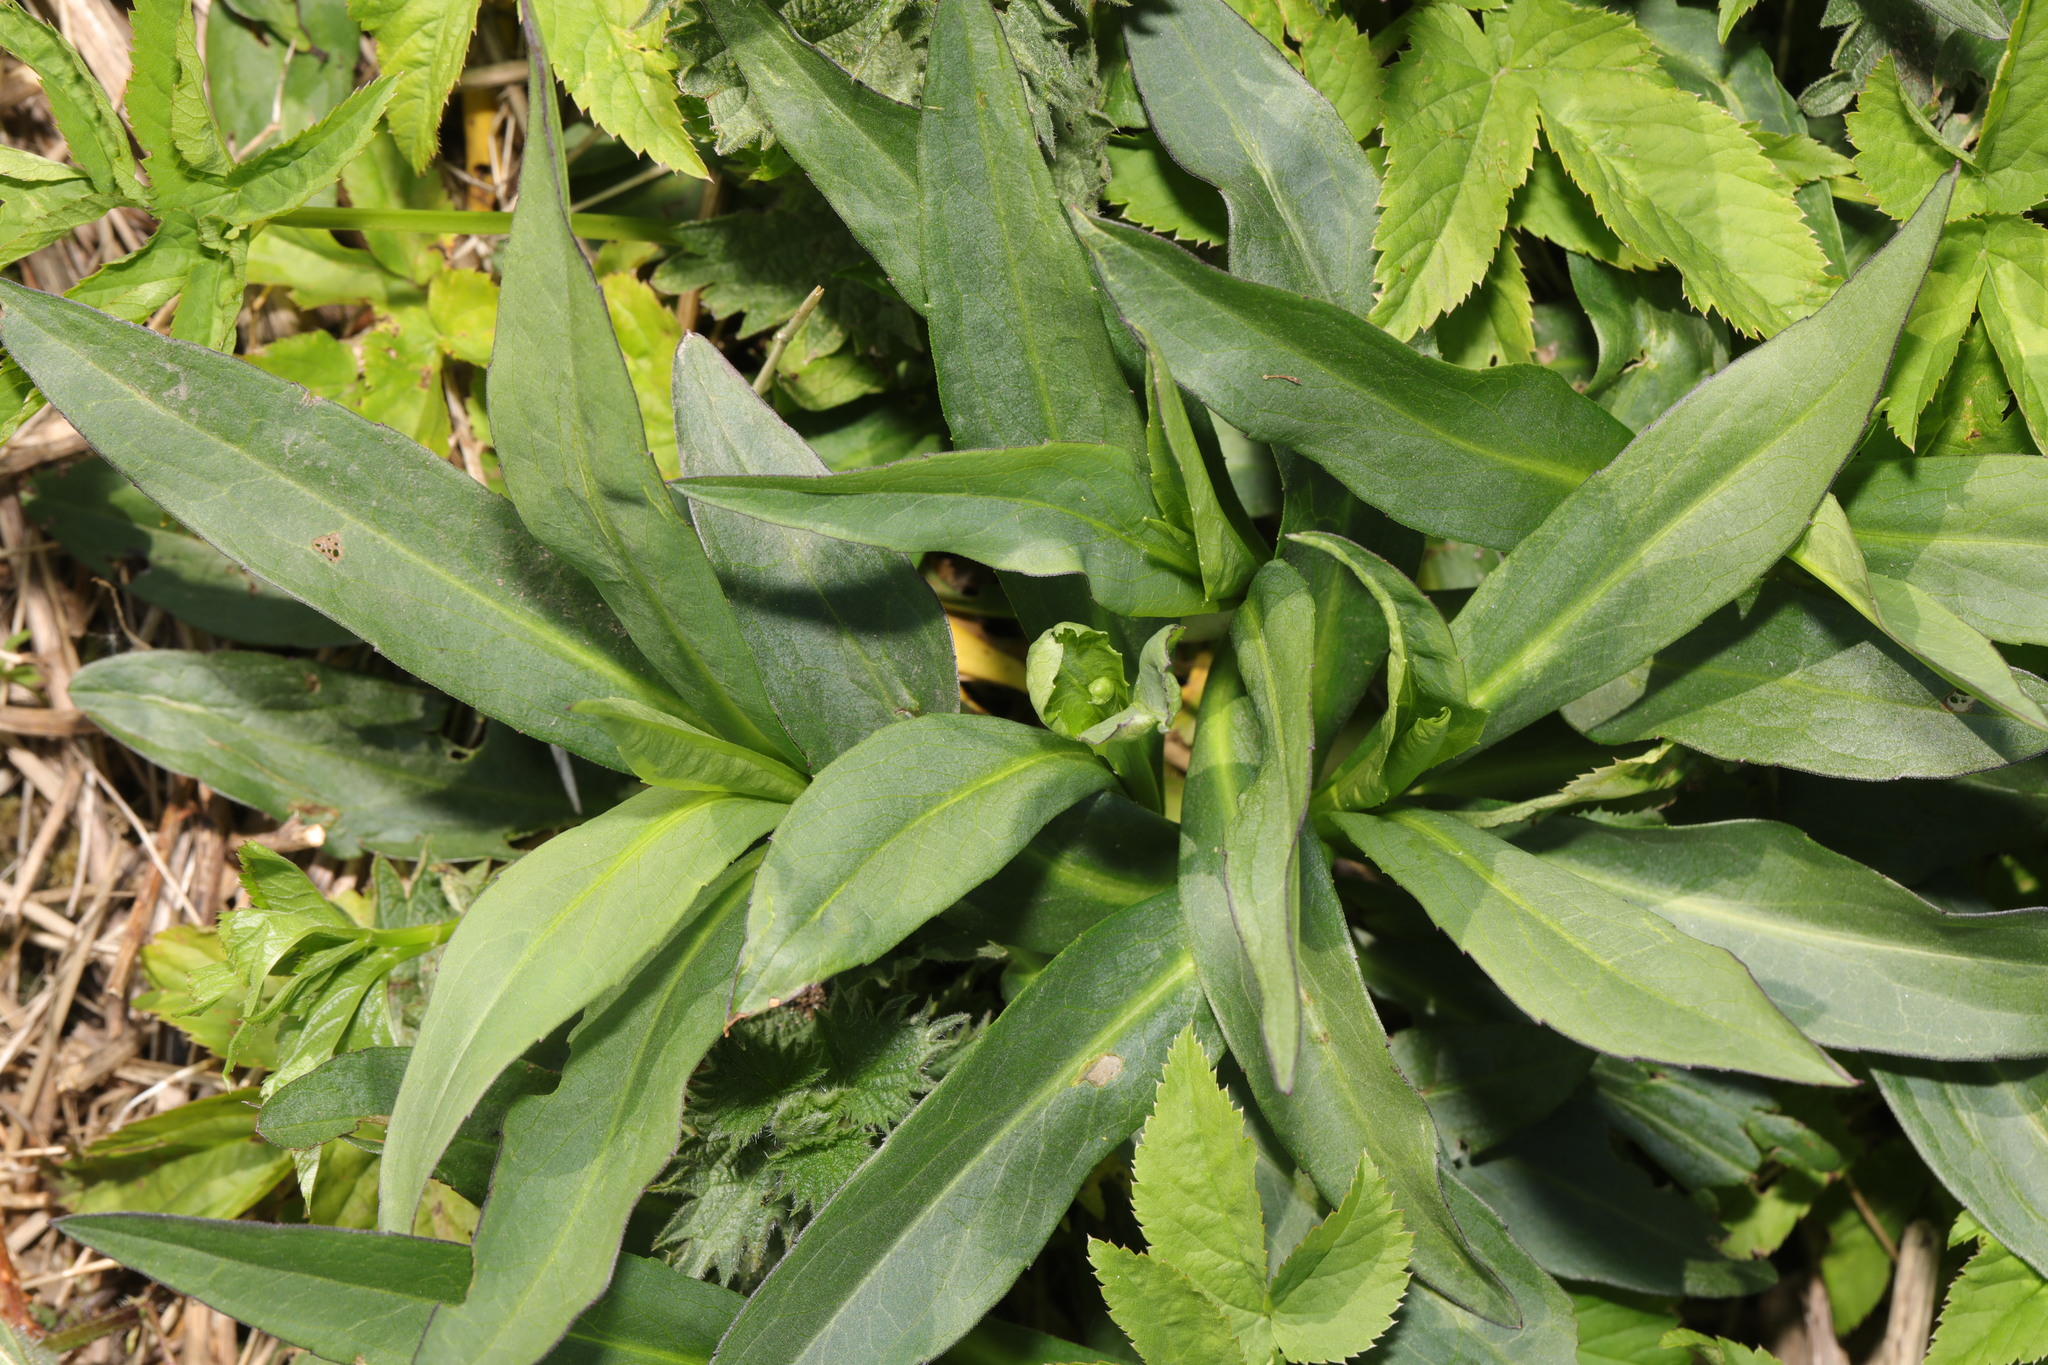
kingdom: Plantae
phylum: Tracheophyta
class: Magnoliopsida
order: Asterales
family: Asteraceae
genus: Symphyotrichum
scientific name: Symphyotrichum
